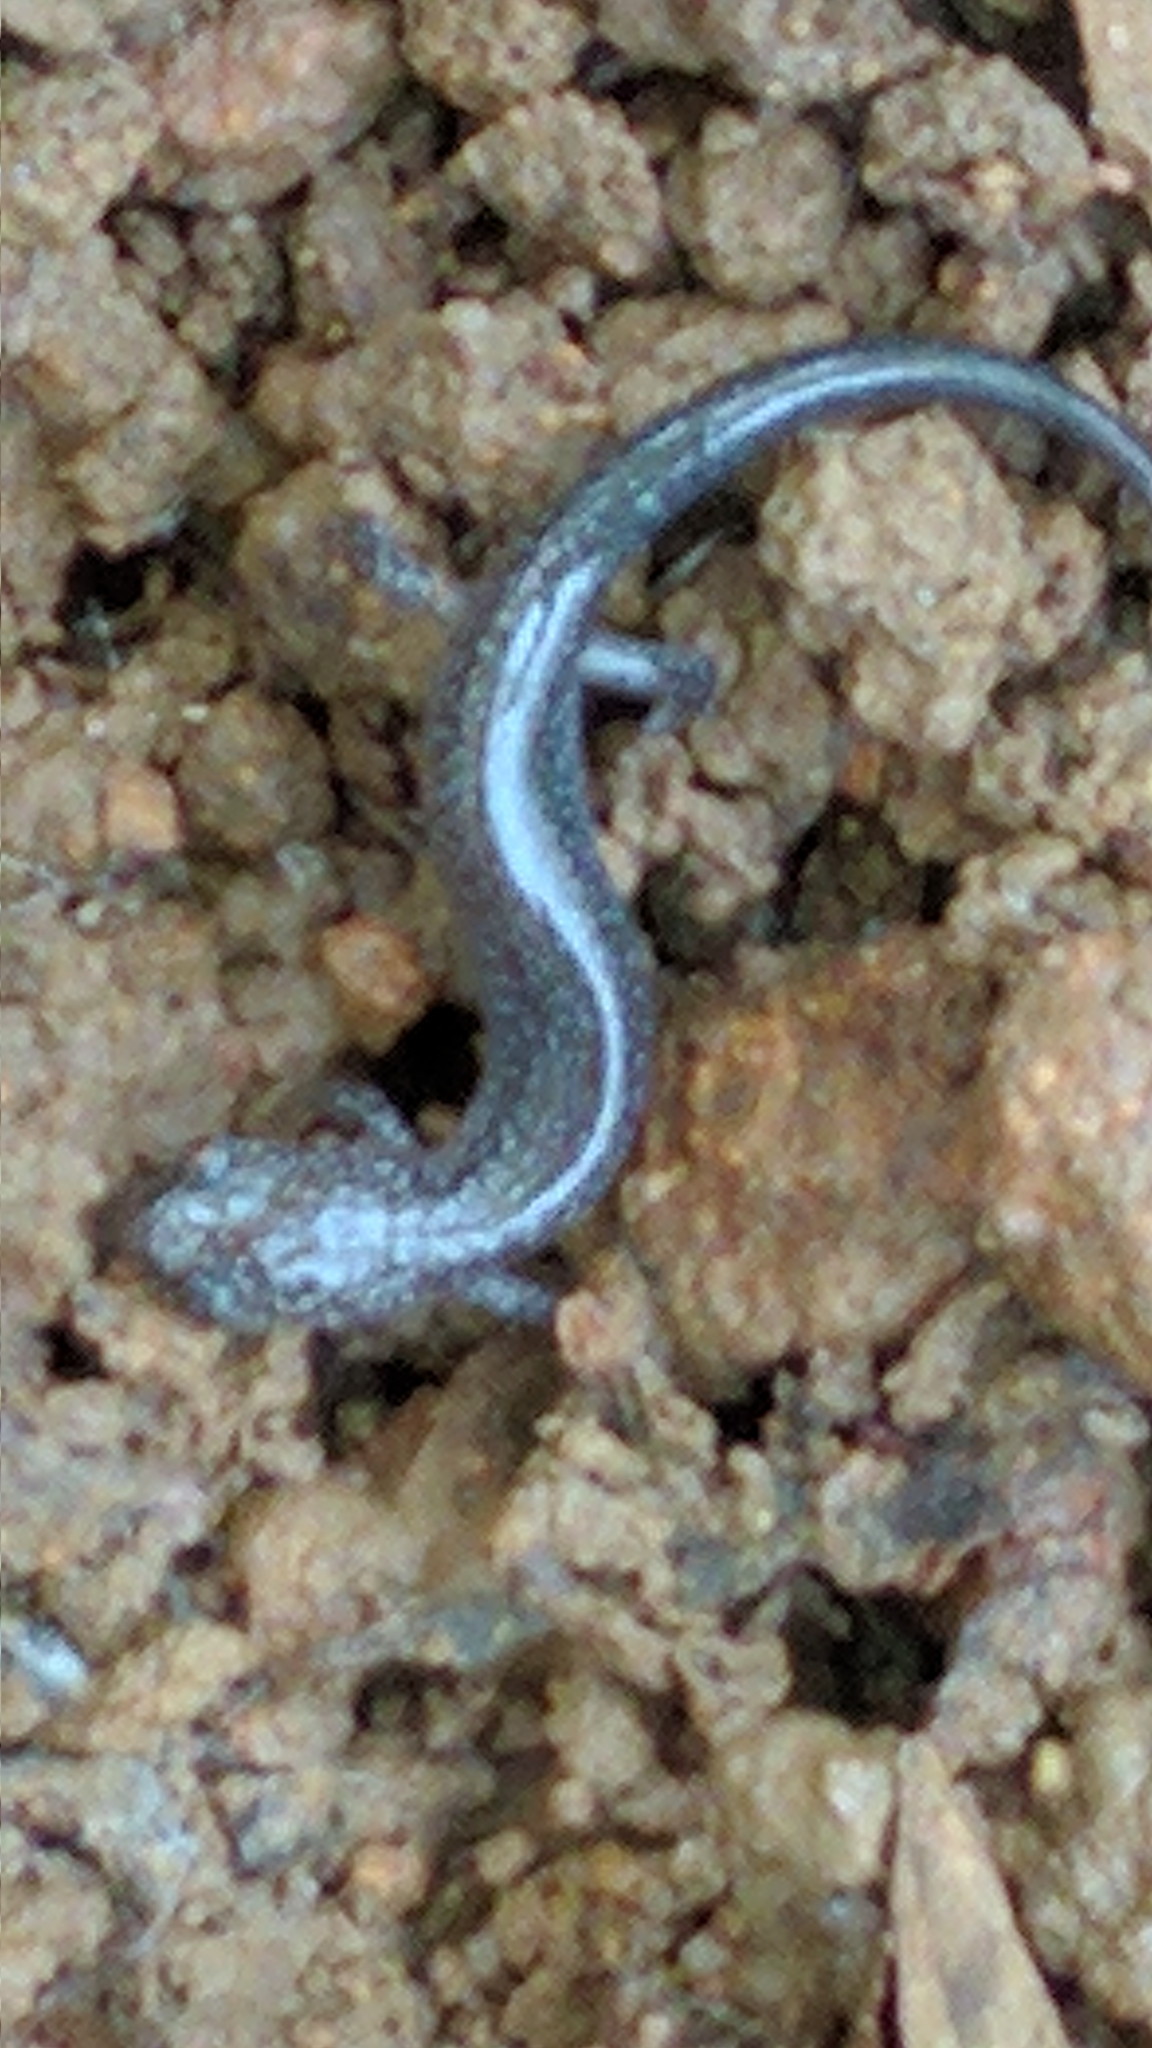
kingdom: Animalia
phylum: Chordata
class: Amphibia
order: Caudata
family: Plethodontidae
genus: Plethodon
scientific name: Plethodon cinereus
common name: Redback salamander
